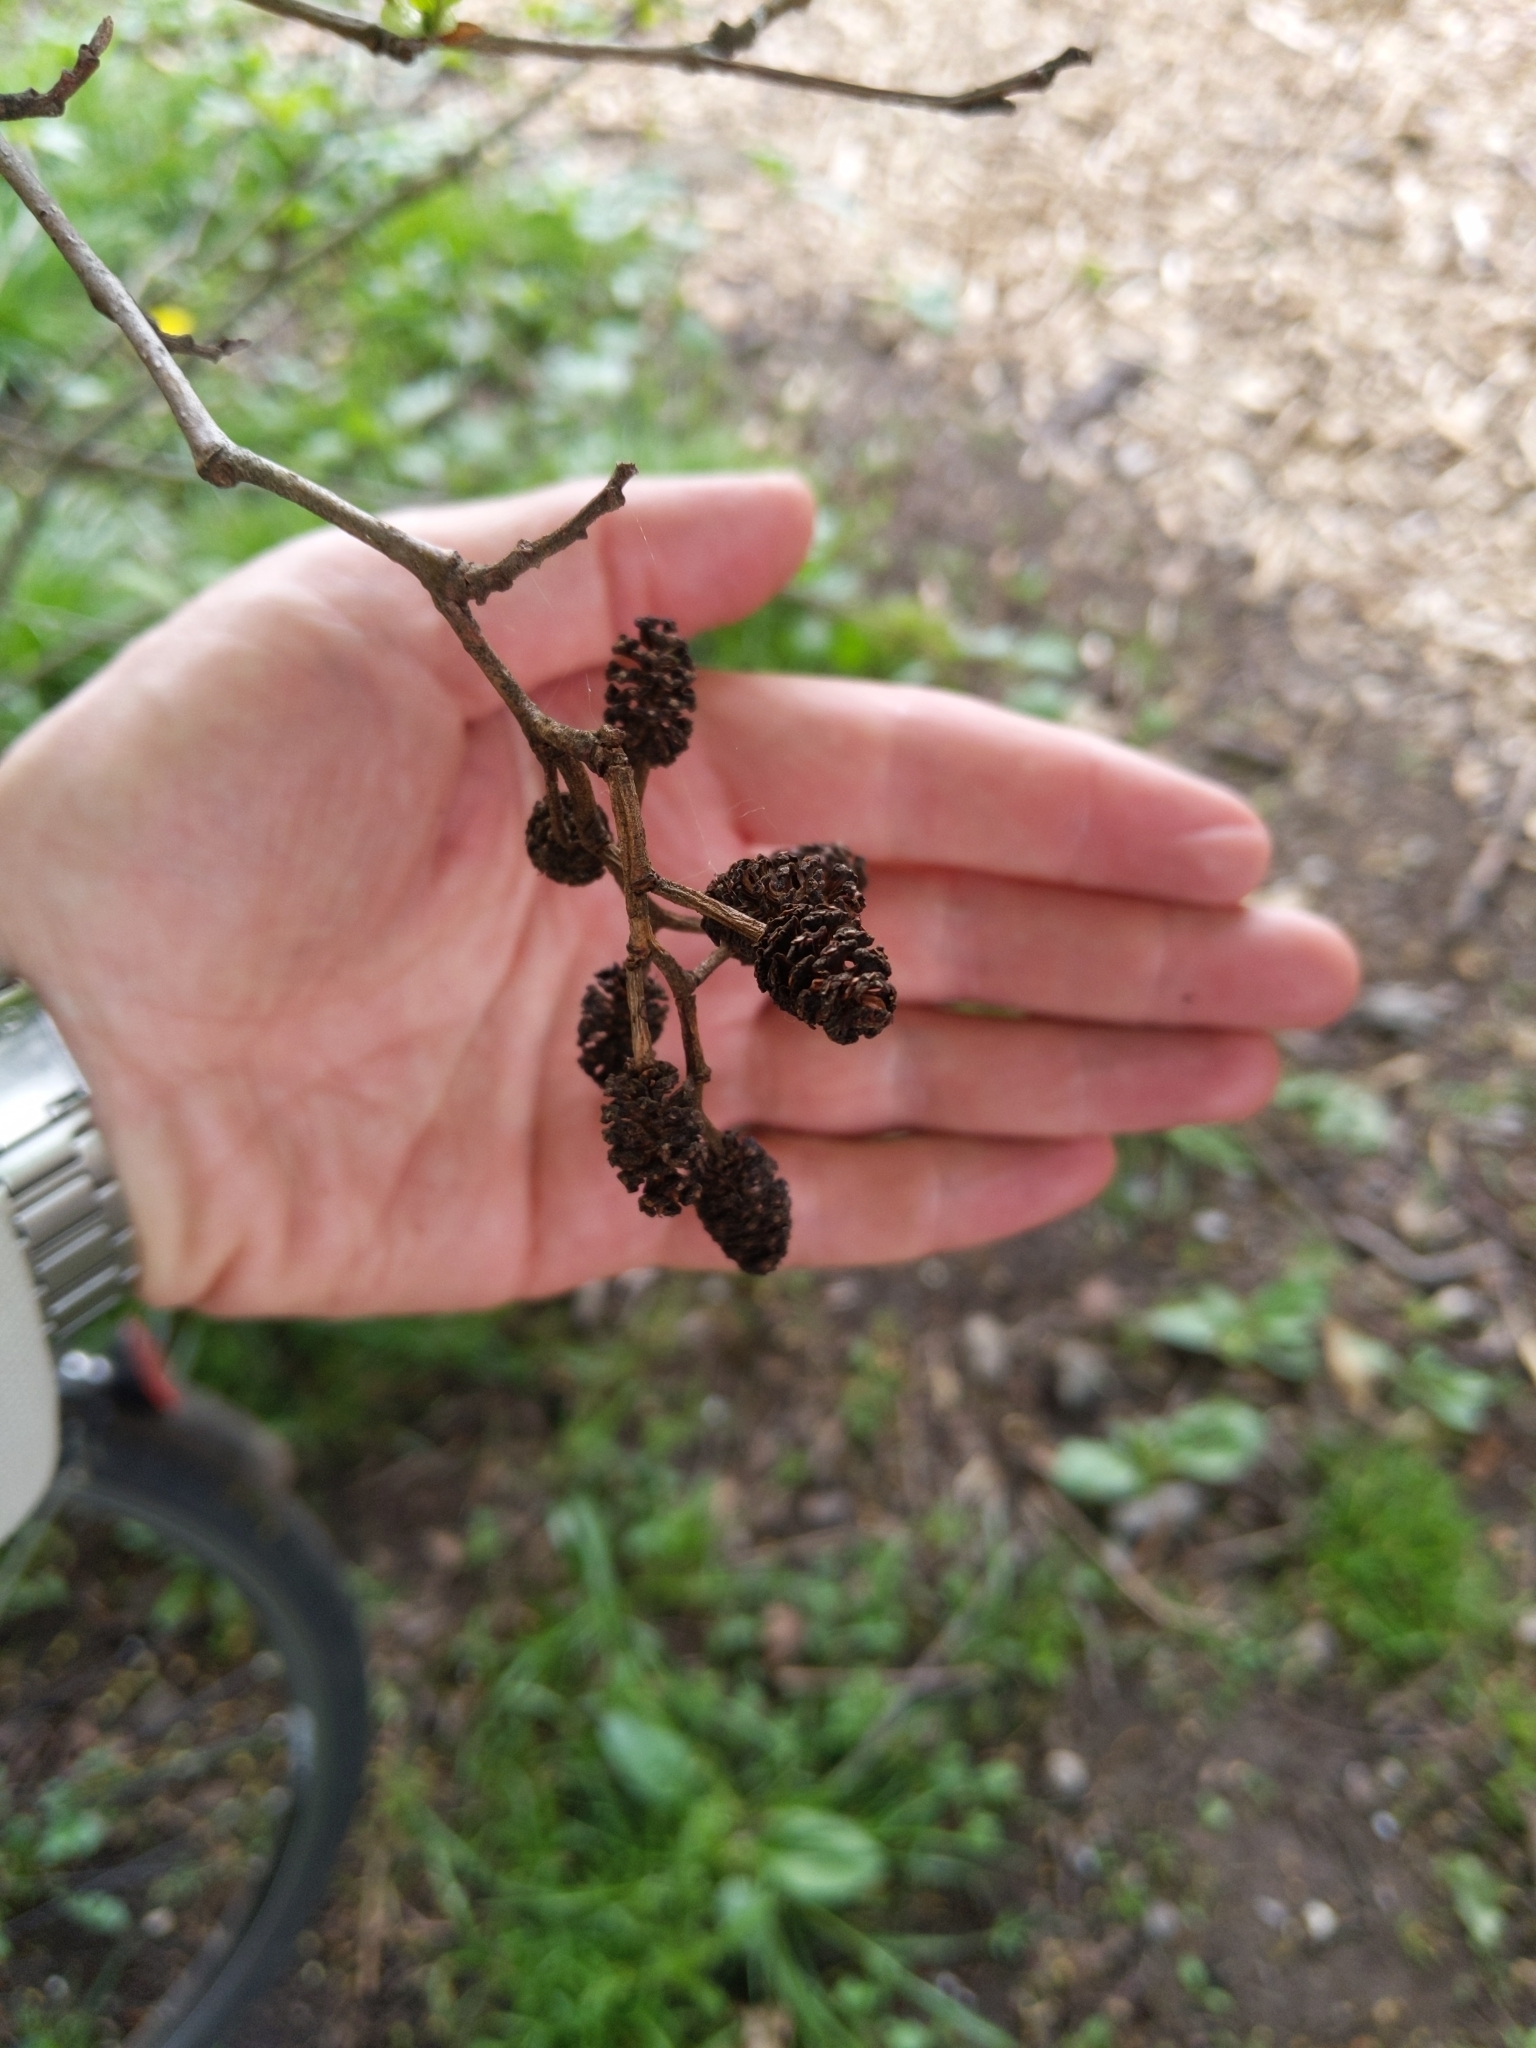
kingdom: Plantae
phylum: Tracheophyta
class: Magnoliopsida
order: Fagales
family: Betulaceae
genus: Alnus
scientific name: Alnus glutinosa
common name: Black alder
